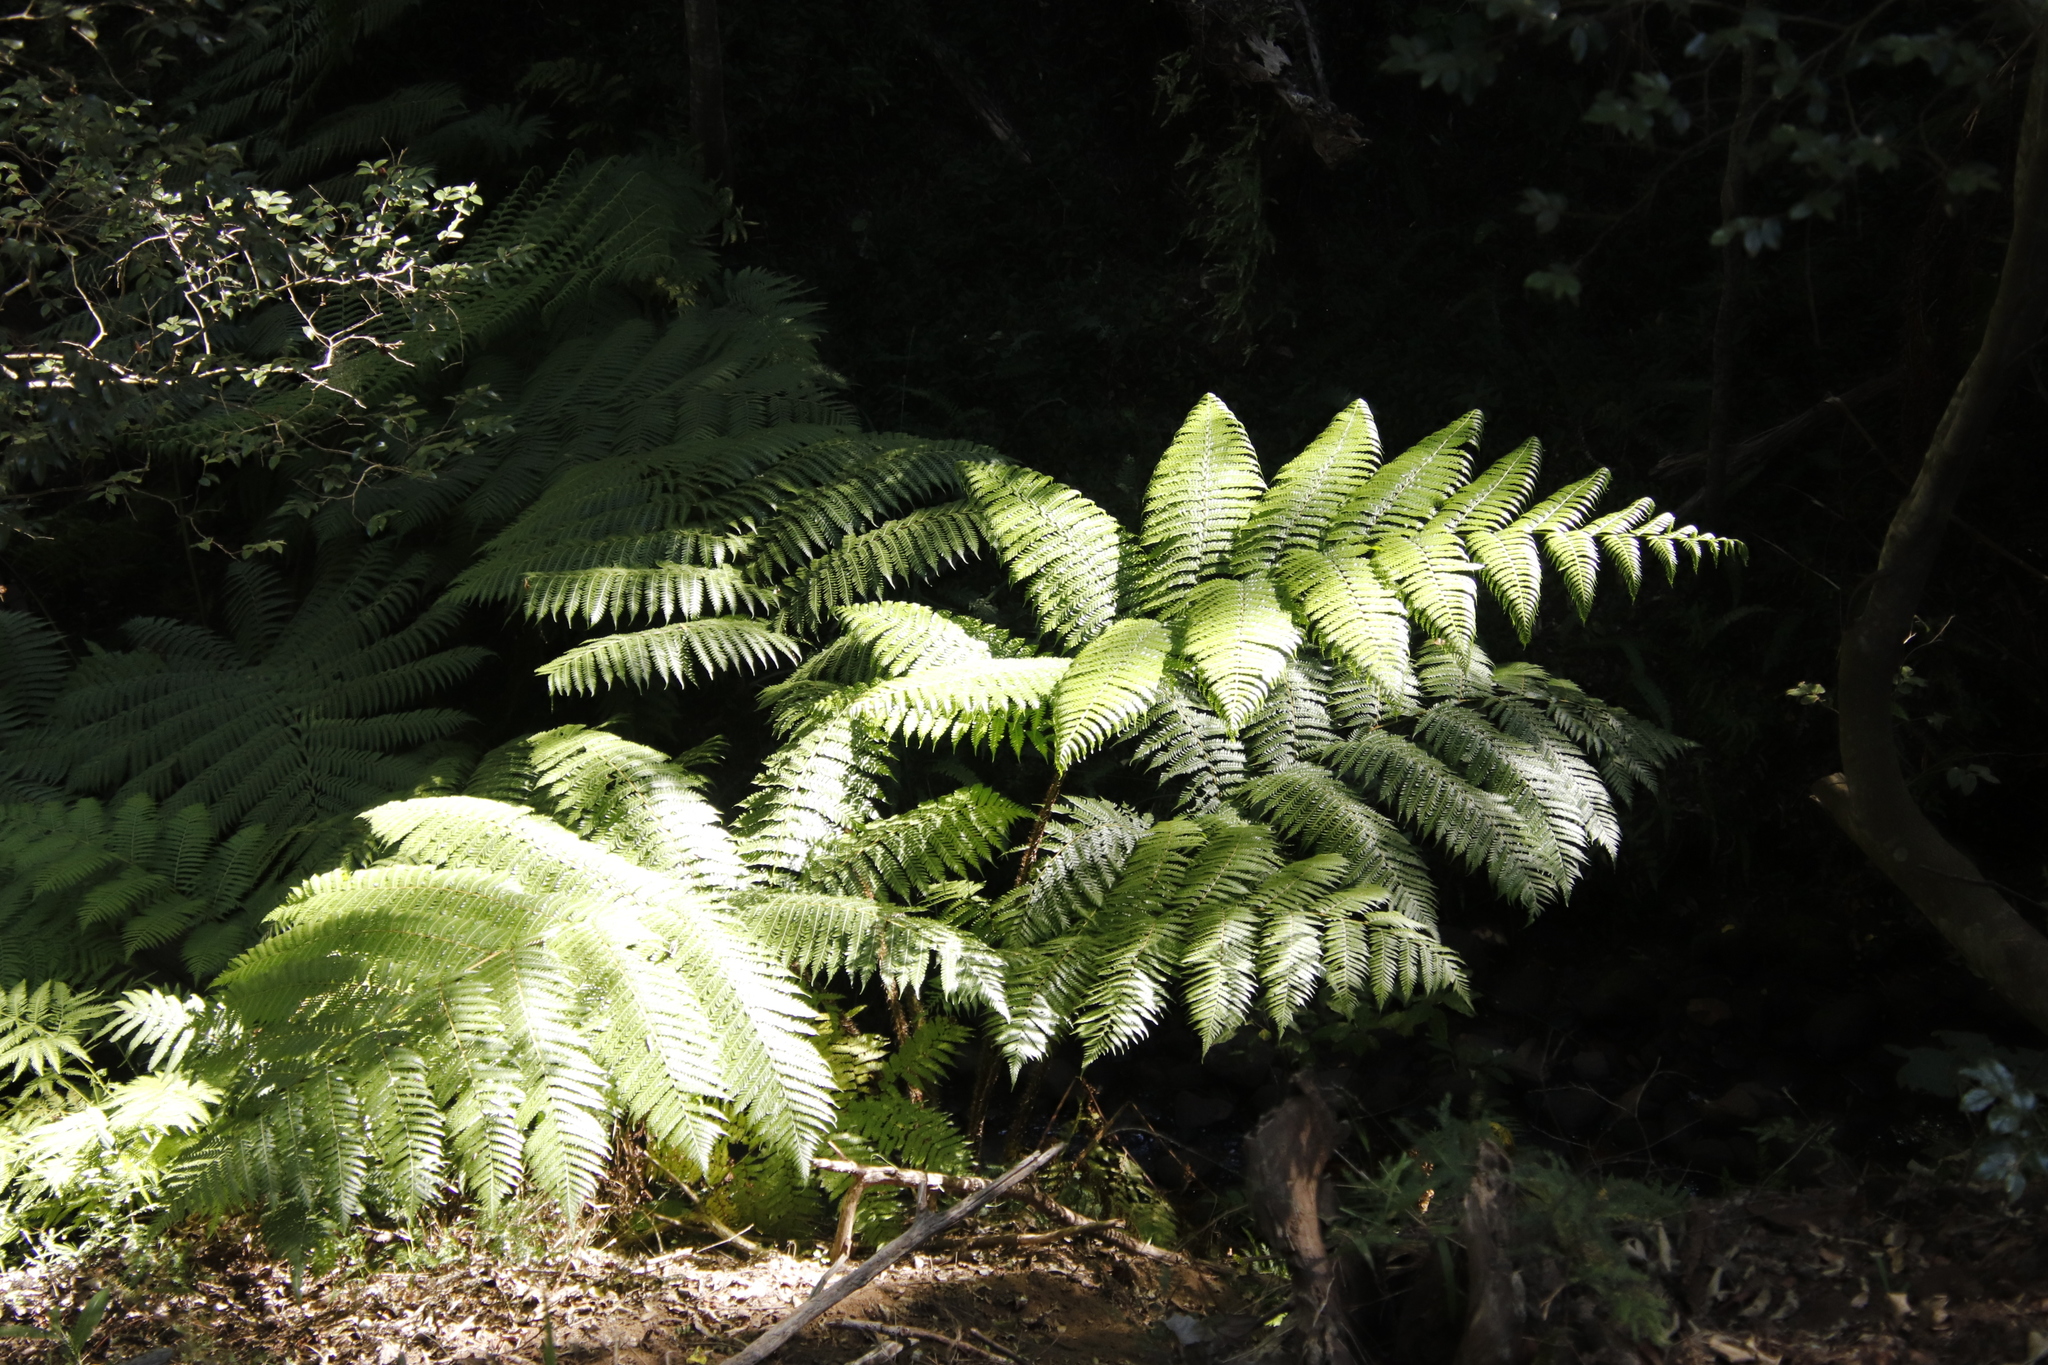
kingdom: Plantae
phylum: Tracheophyta
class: Polypodiopsida
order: Cyatheales
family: Cyatheaceae
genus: Sphaeropteris
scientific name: Sphaeropteris cooperi
